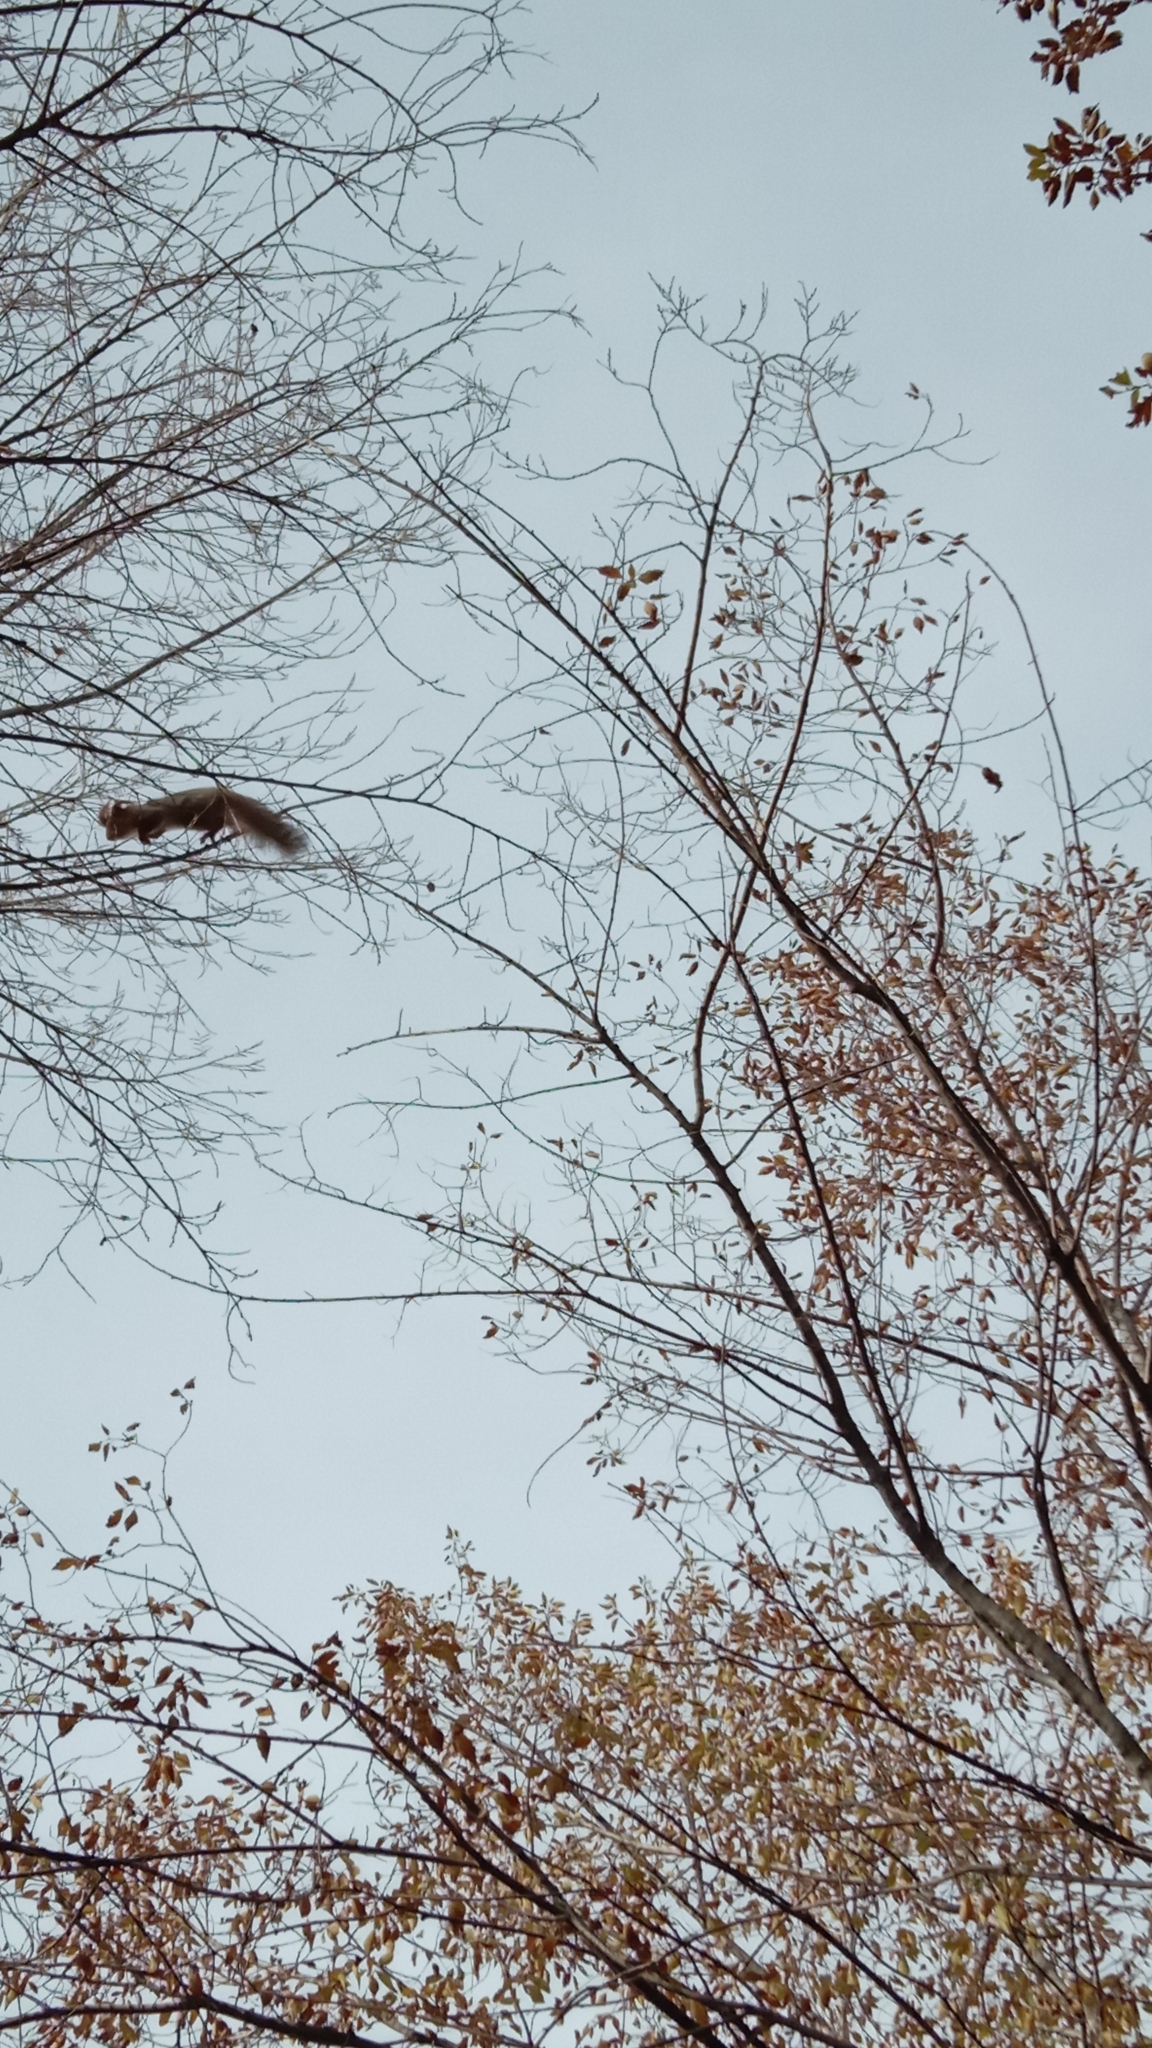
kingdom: Animalia
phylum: Chordata
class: Mammalia
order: Rodentia
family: Sciuridae
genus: Sciurus
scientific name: Sciurus vulgaris
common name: Eurasian red squirrel
